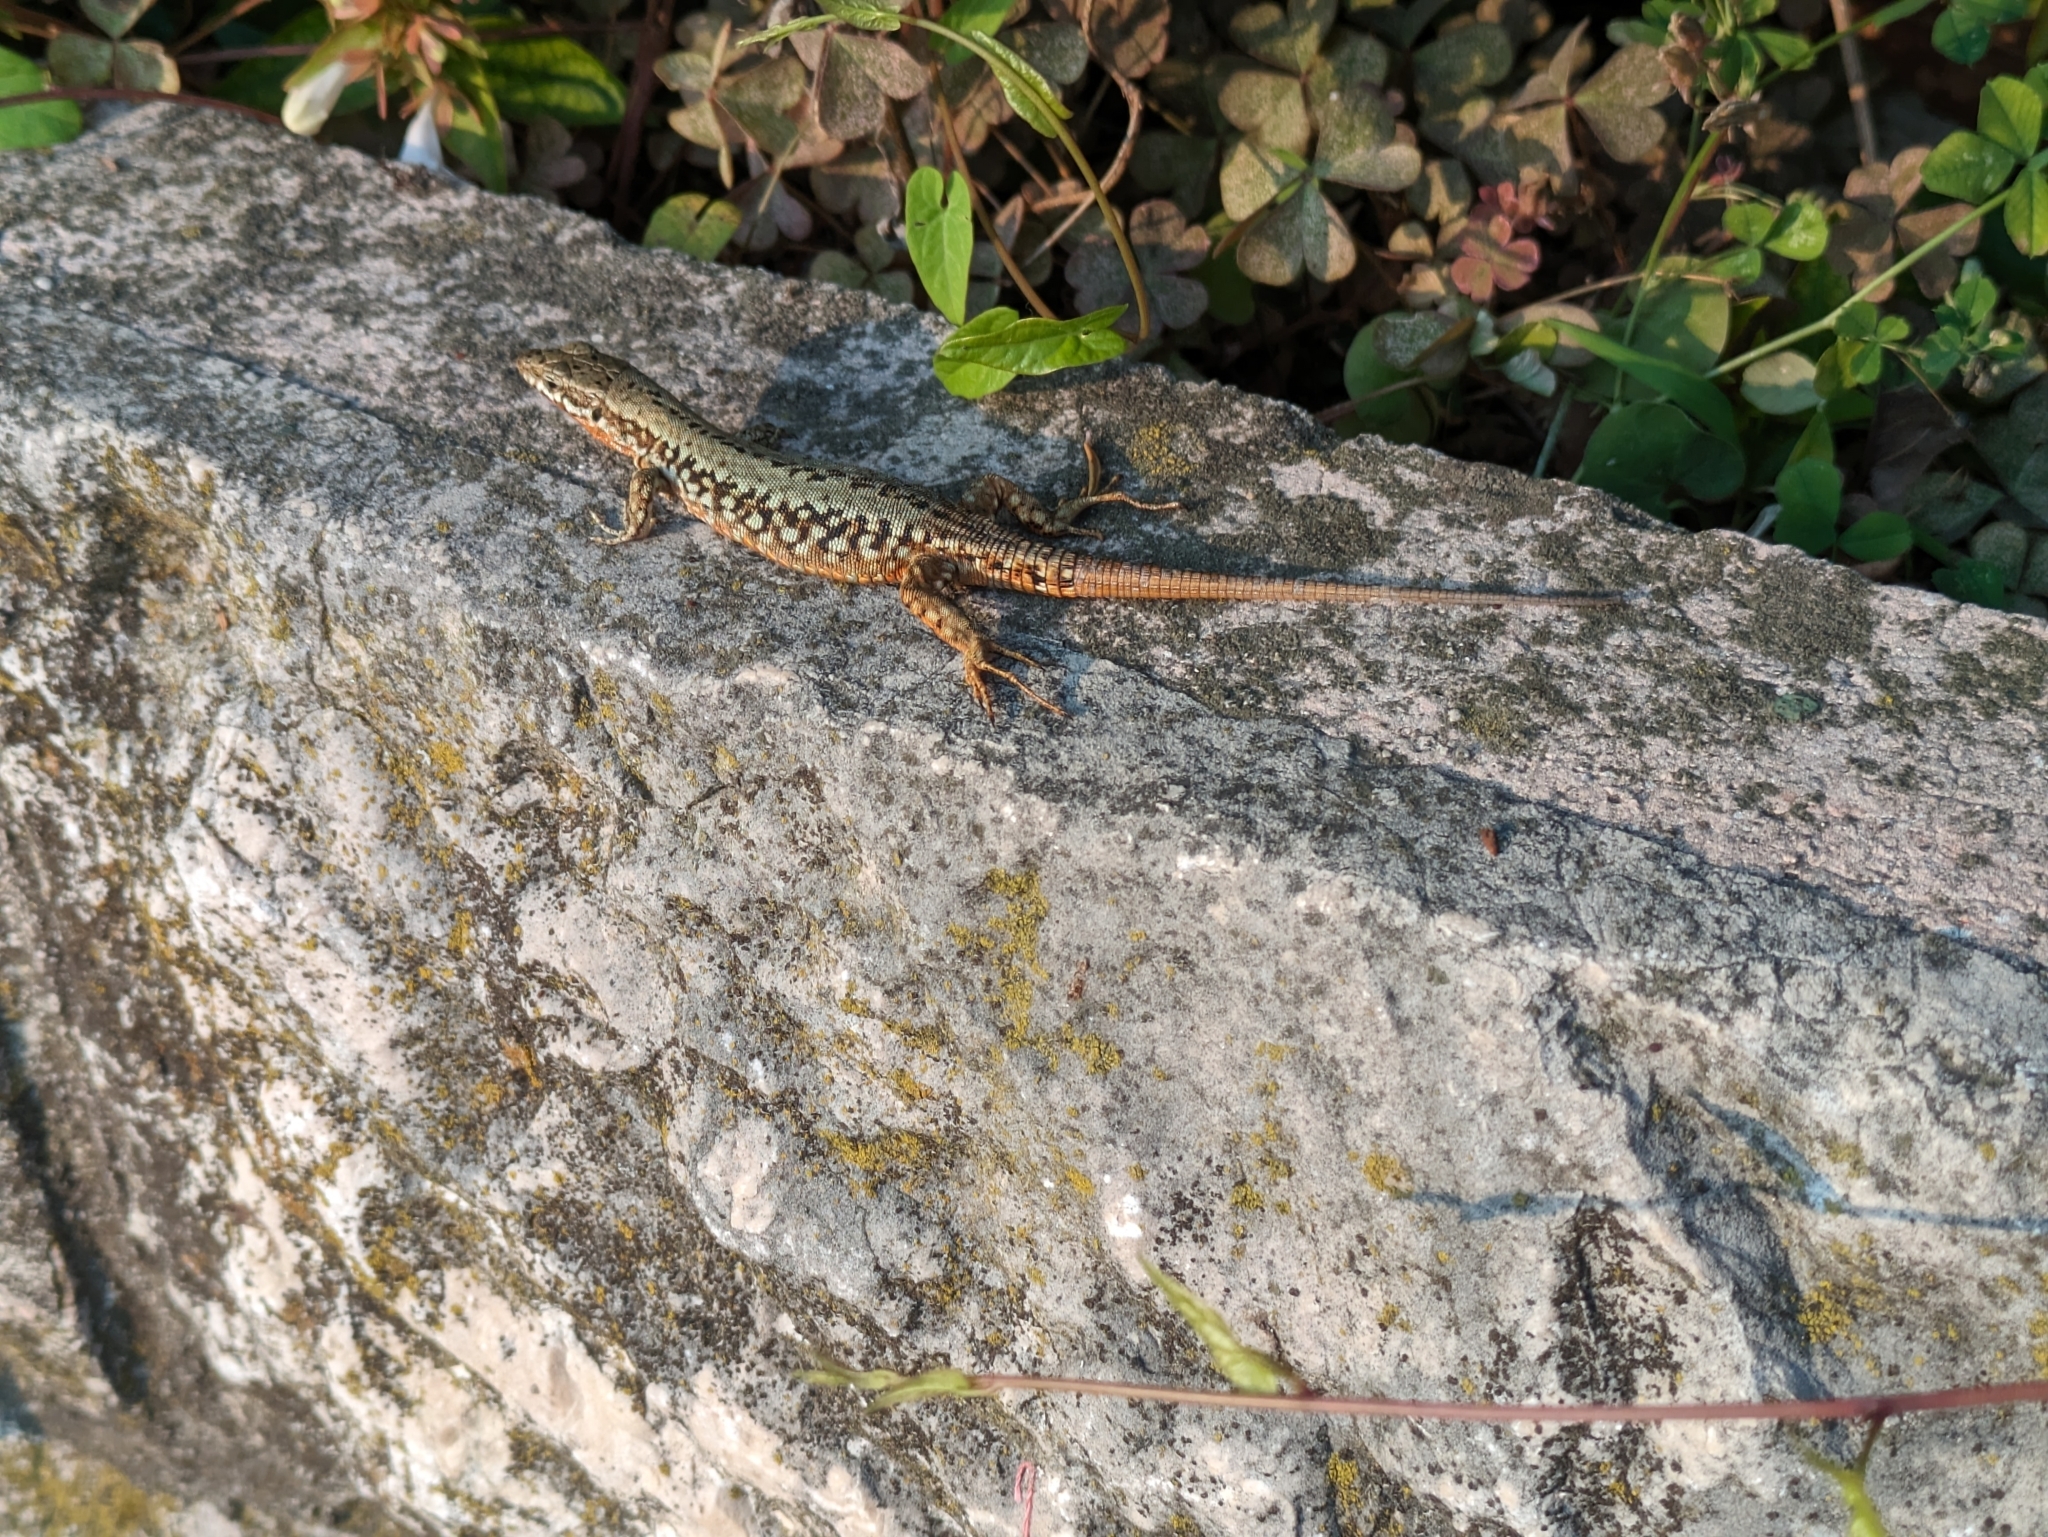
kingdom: Animalia
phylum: Chordata
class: Squamata
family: Lacertidae
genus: Podarcis
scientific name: Podarcis muralis
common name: Common wall lizard
